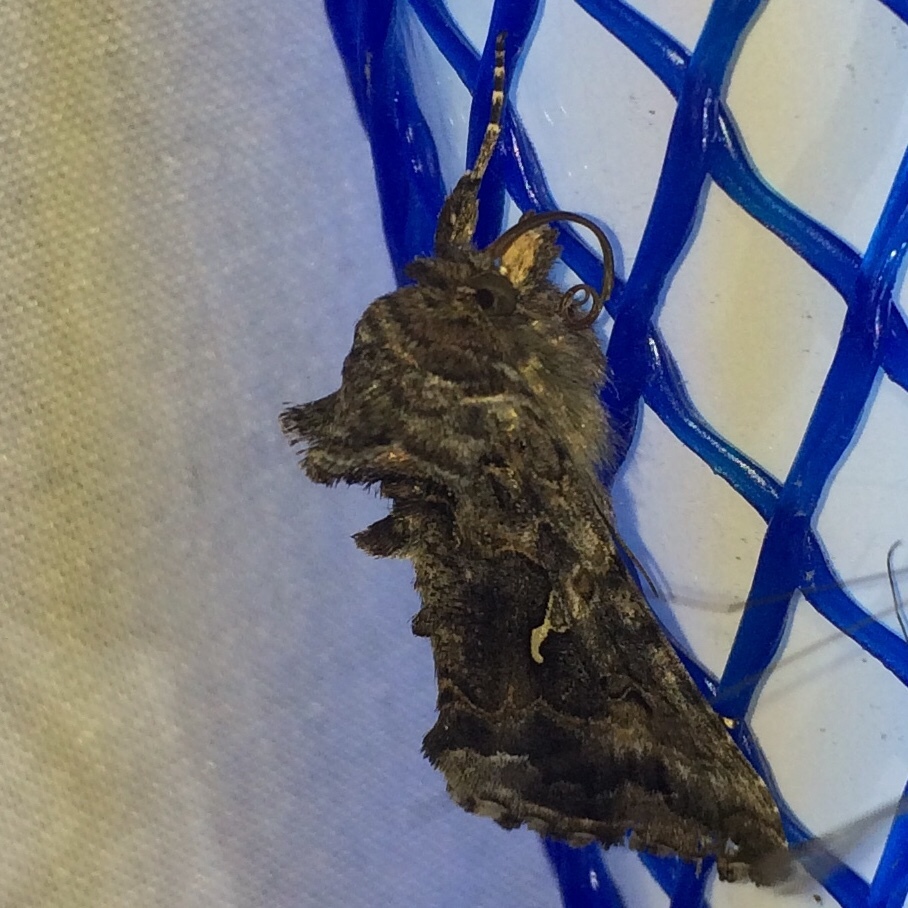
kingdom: Animalia
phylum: Arthropoda
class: Insecta
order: Lepidoptera
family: Noctuidae
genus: Autographa
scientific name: Autographa californica
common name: Alfalfa looper
